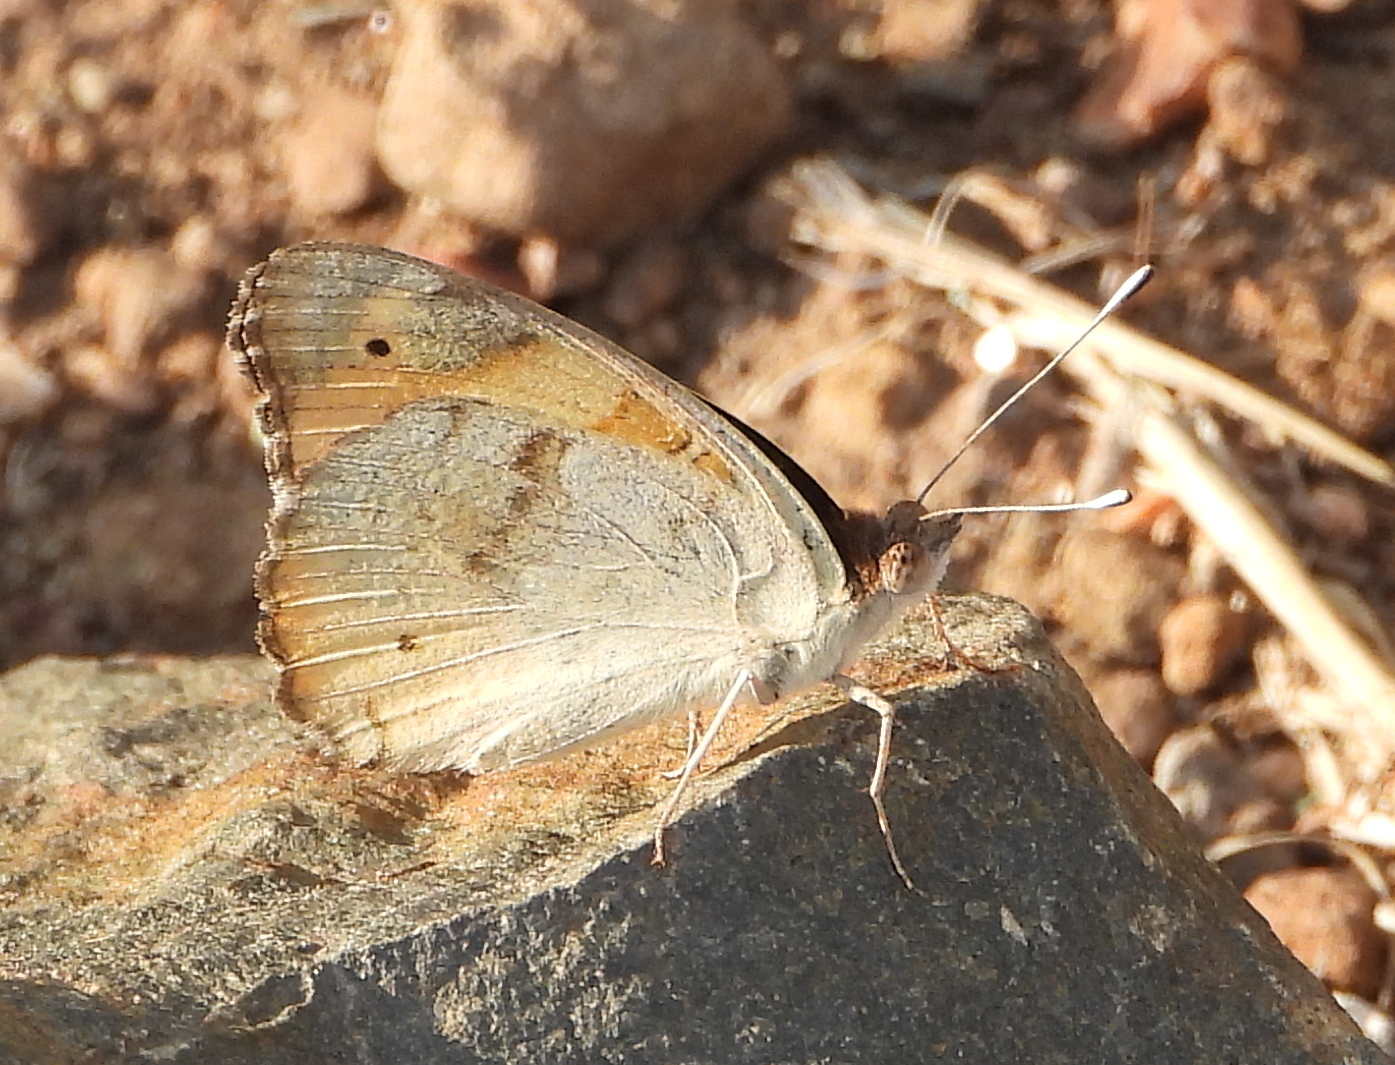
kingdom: Animalia
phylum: Arthropoda
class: Insecta
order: Lepidoptera
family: Nymphalidae
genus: Junonia
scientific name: Junonia hierta
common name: Yellow pansy
